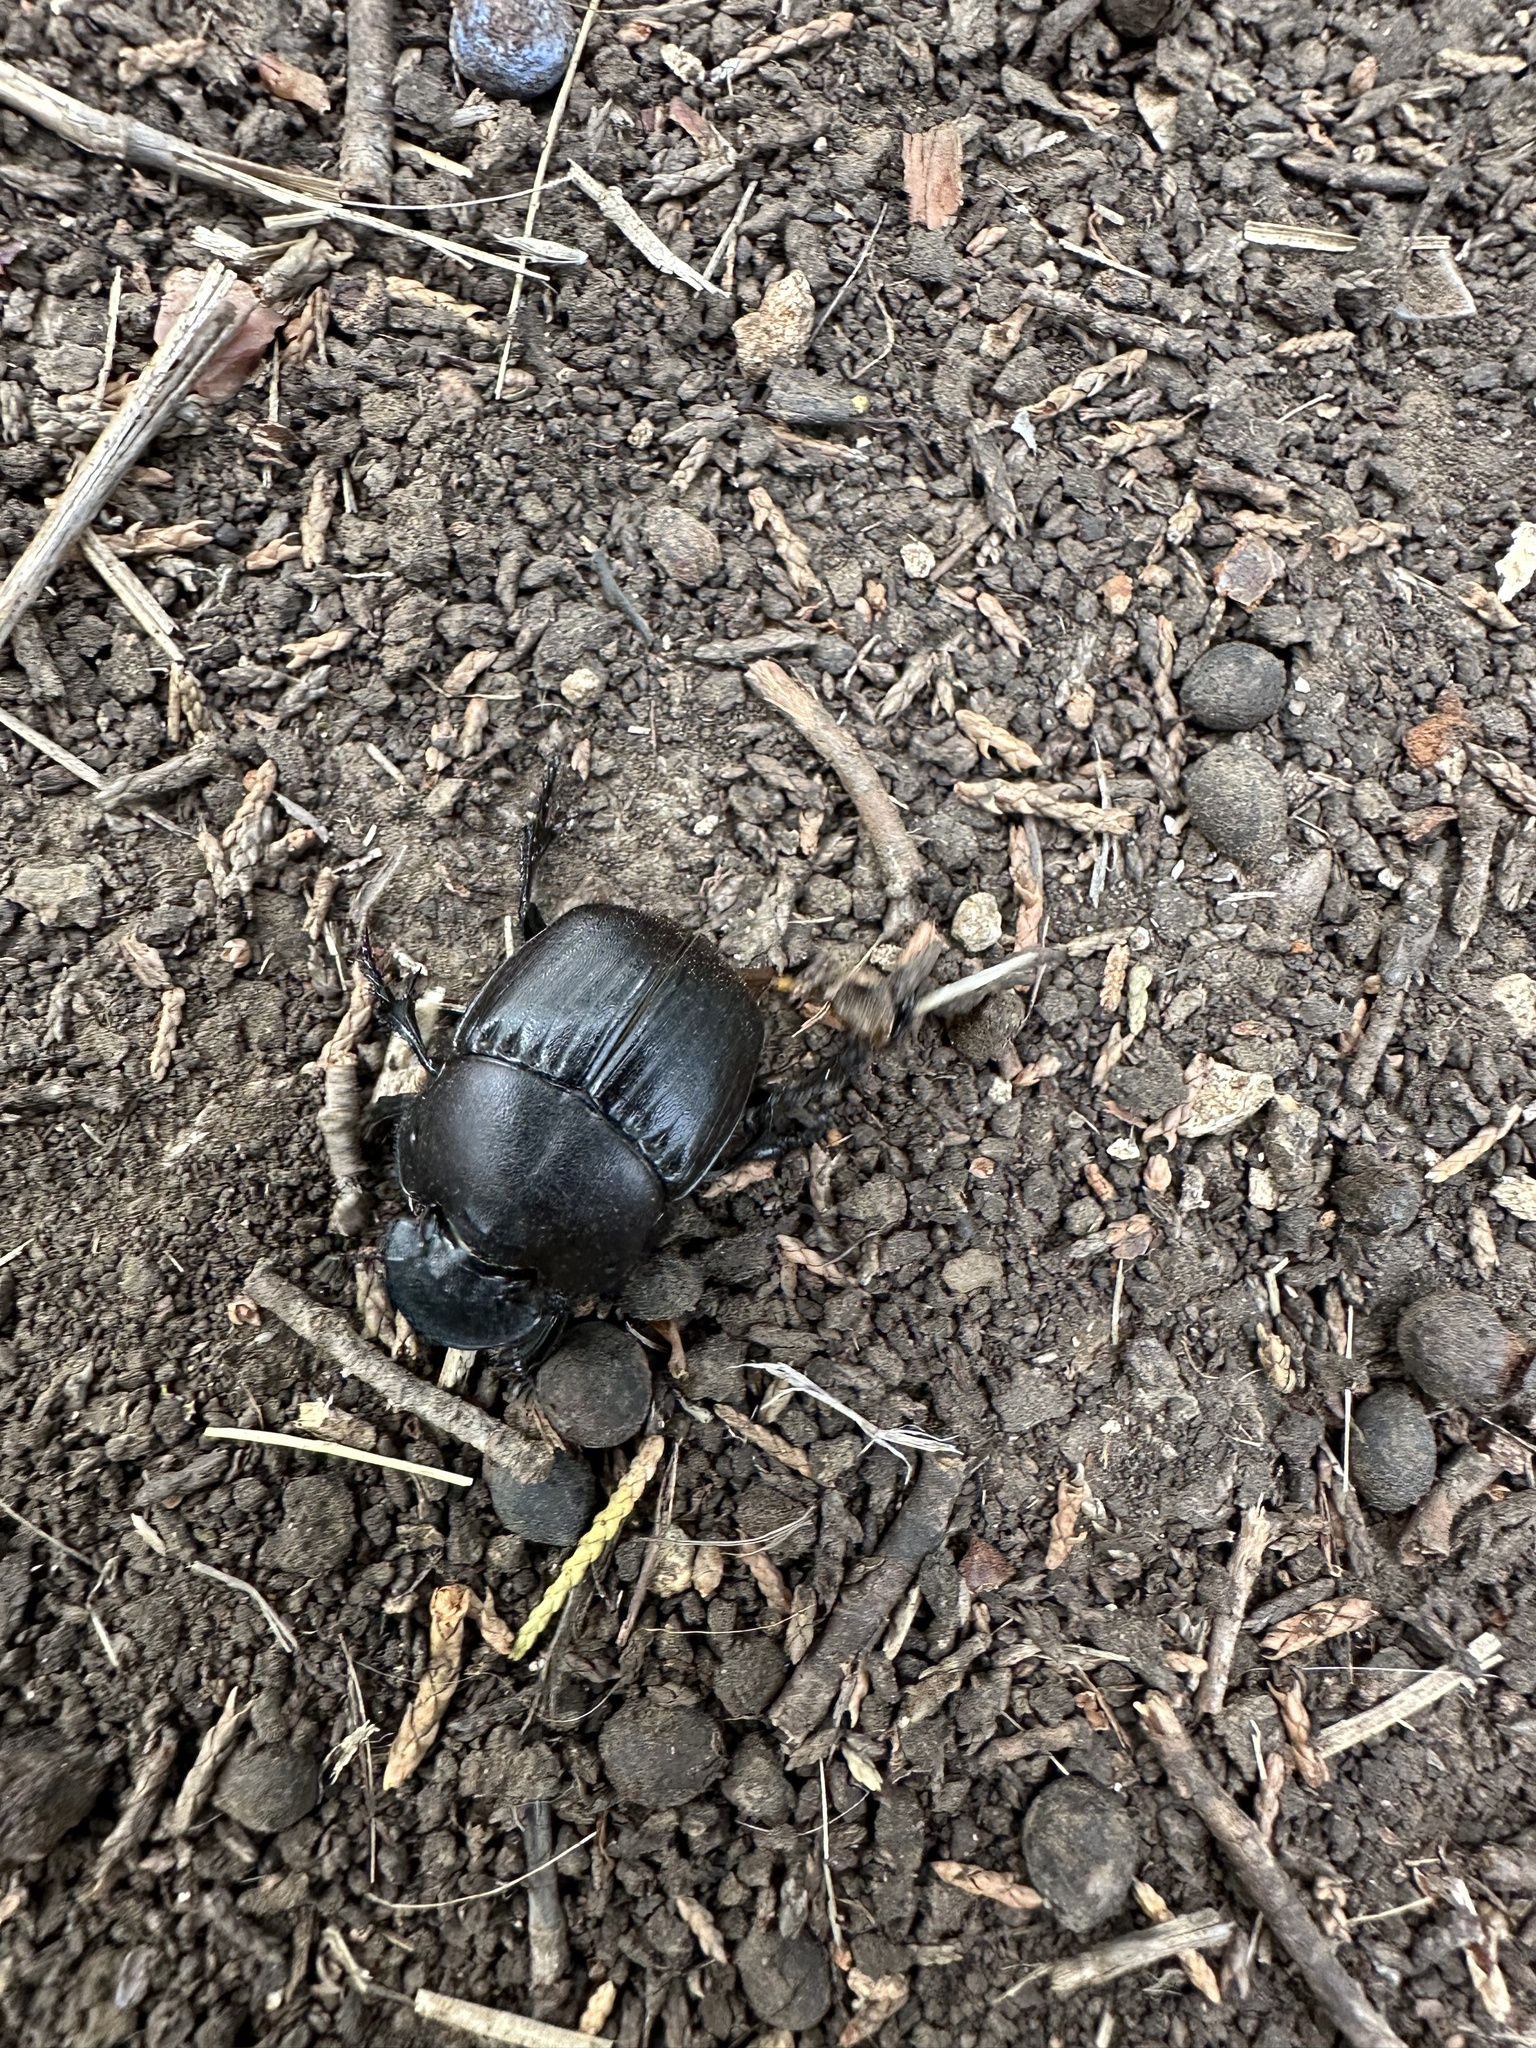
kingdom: Animalia
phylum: Arthropoda
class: Insecta
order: Coleoptera
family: Scarabaeidae
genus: Phanaeus
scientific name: Phanaeus texensis
